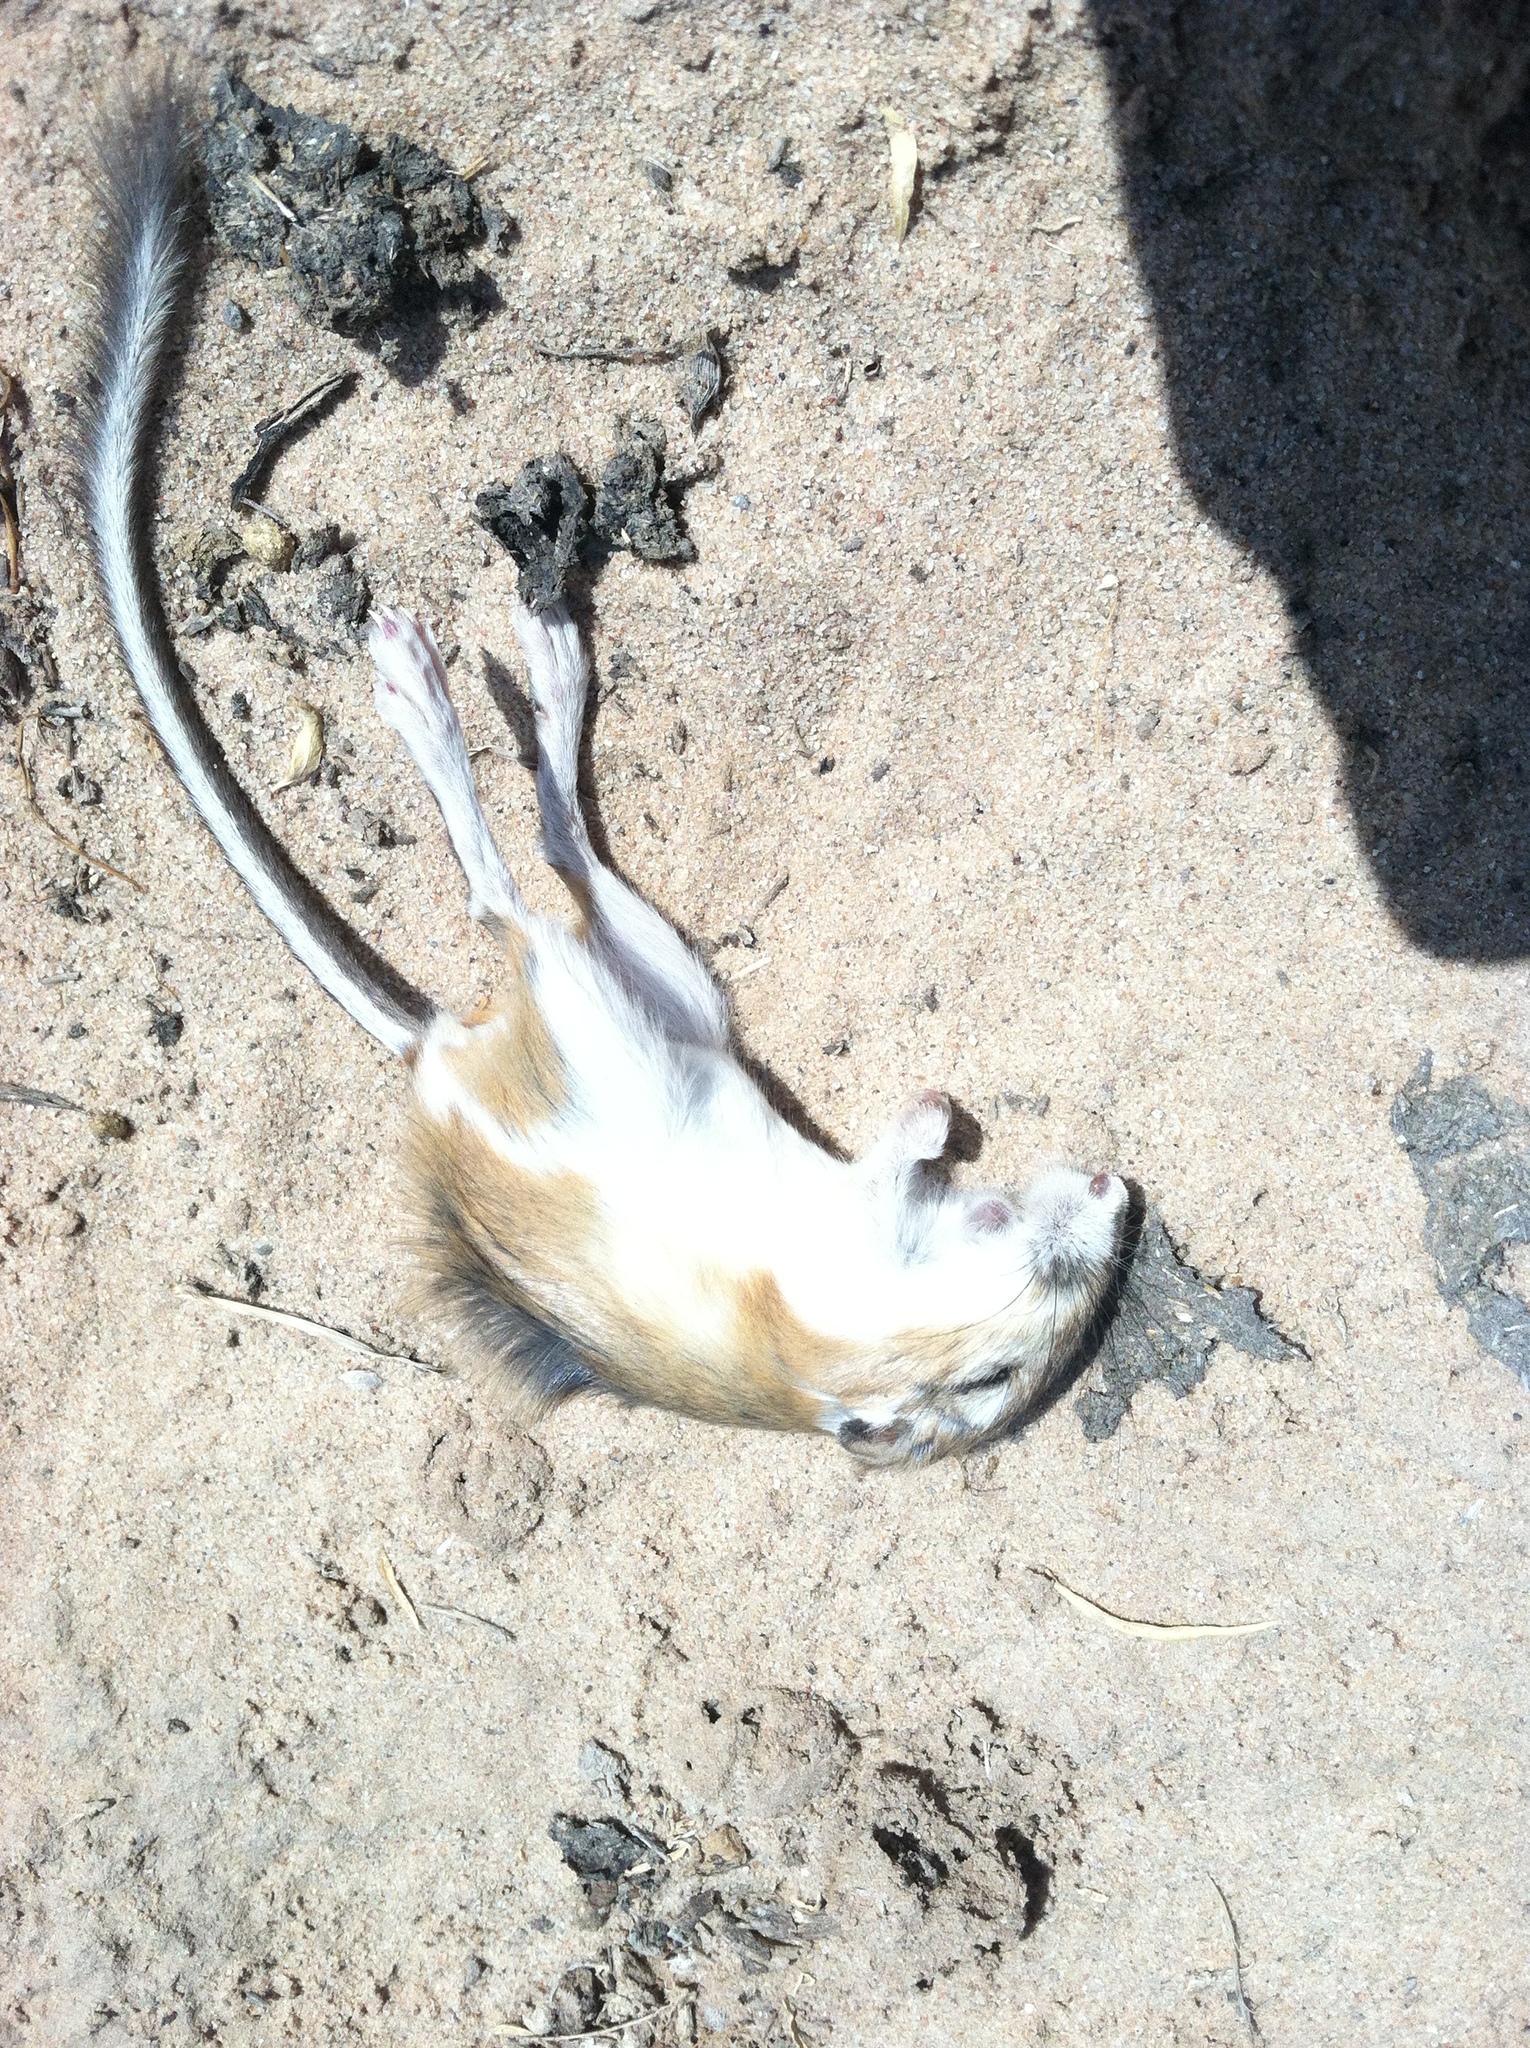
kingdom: Animalia
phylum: Chordata
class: Mammalia
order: Rodentia
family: Heteromyidae
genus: Dipodomys
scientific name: Dipodomys ordii
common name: Ord's kangaroo rat
